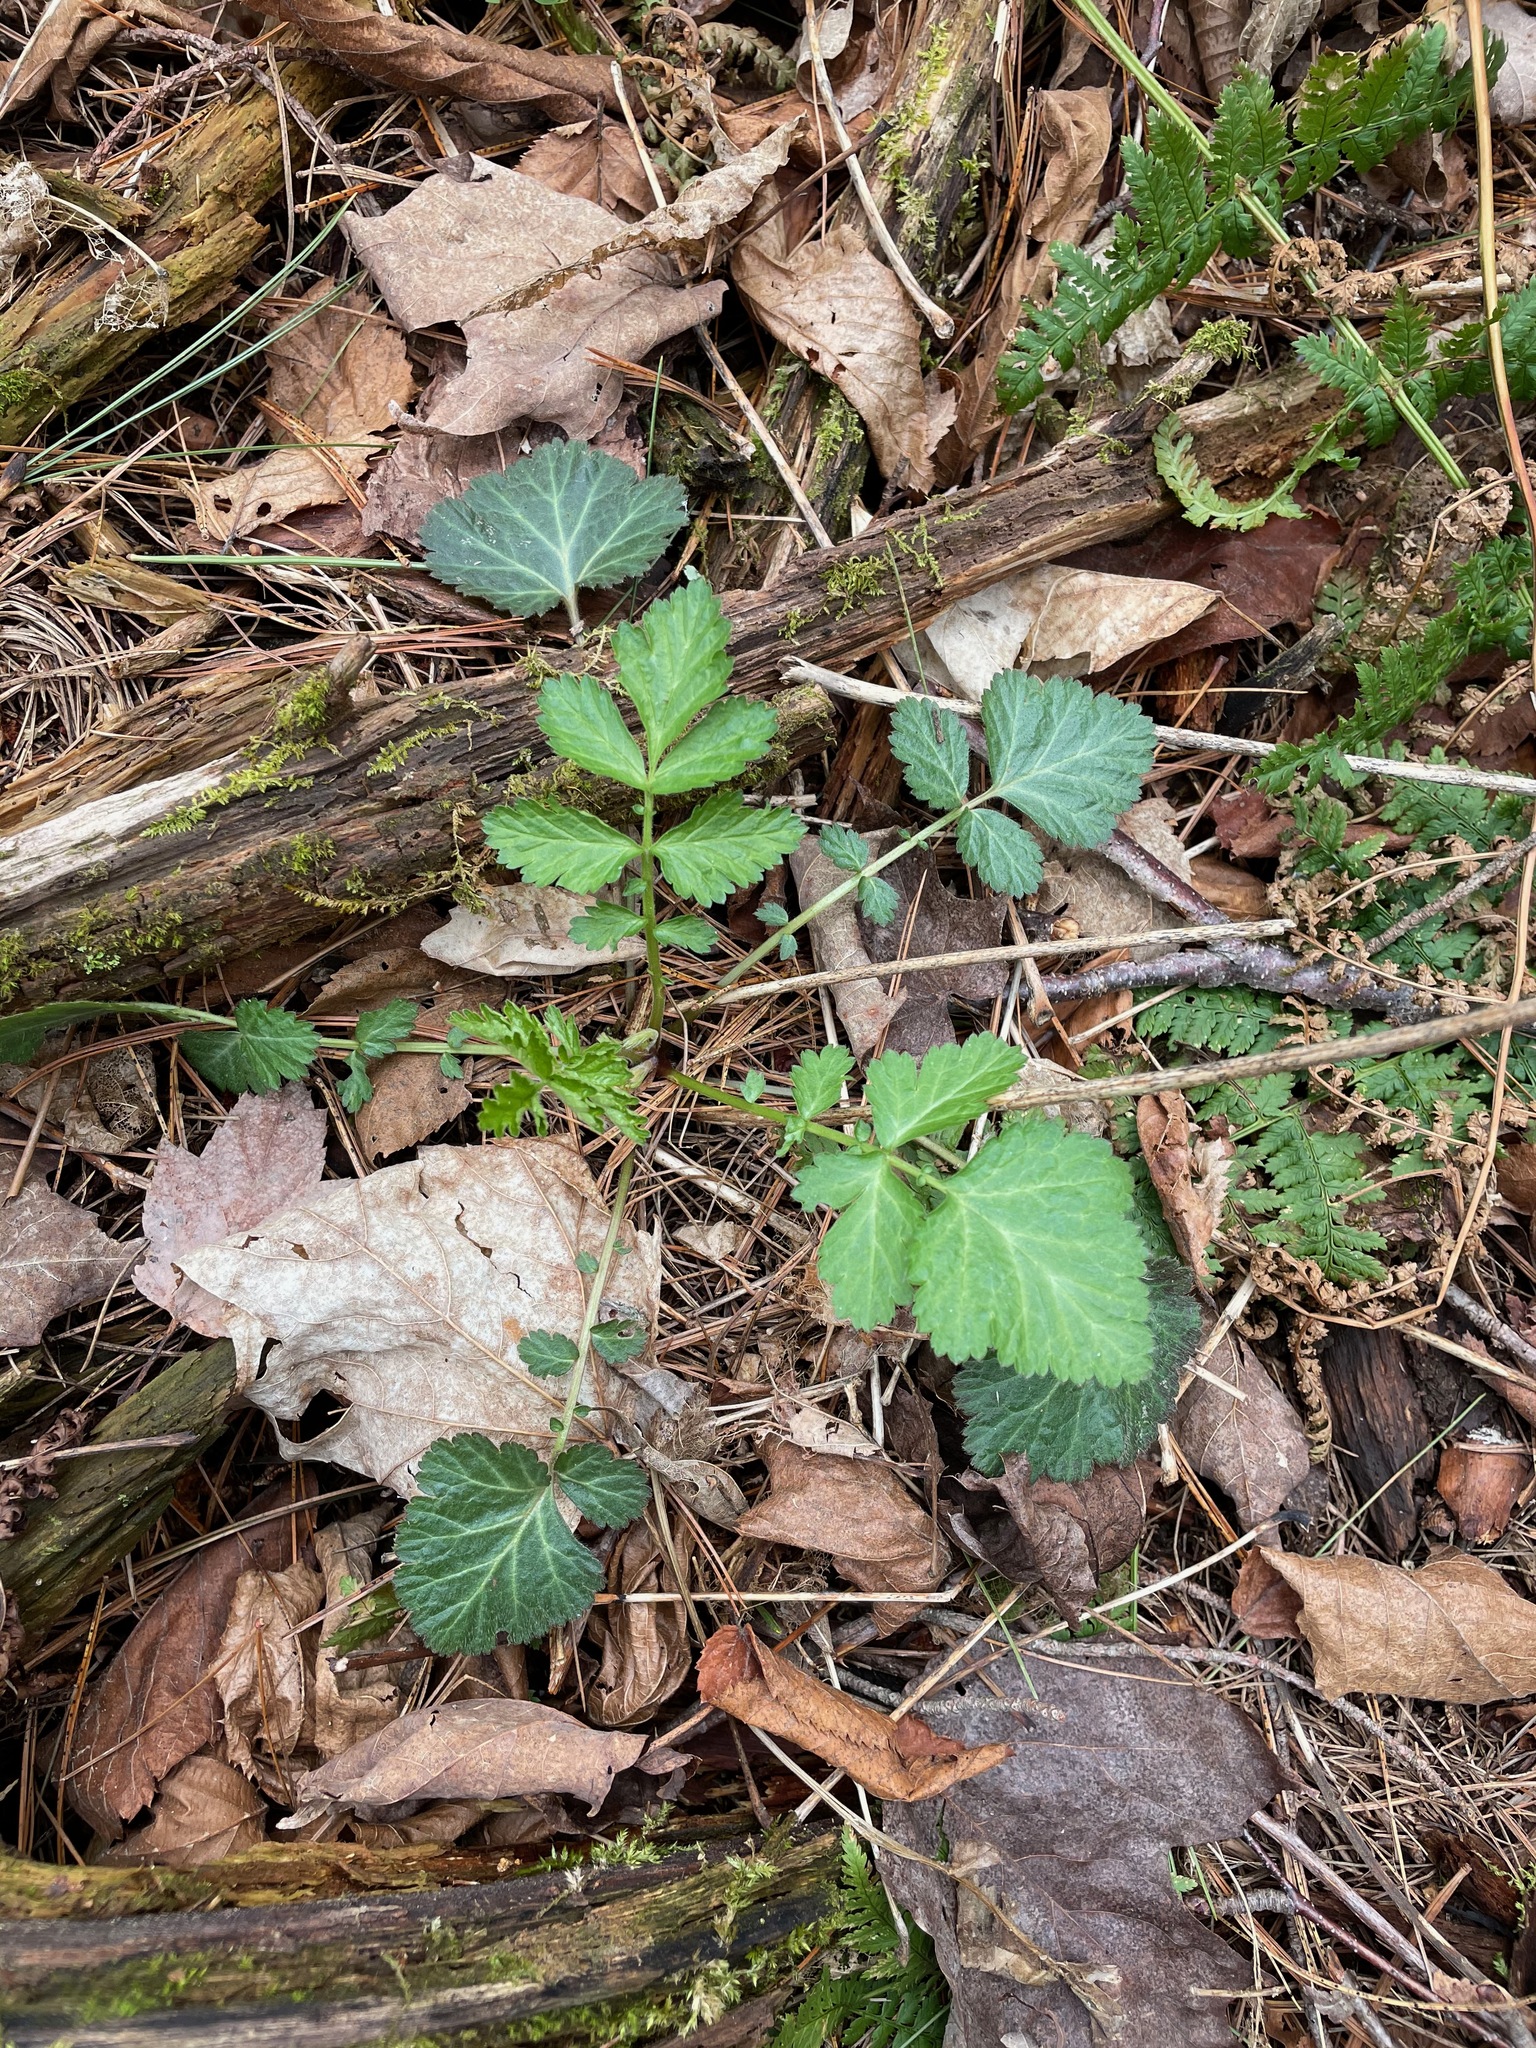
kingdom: Plantae
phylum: Tracheophyta
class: Magnoliopsida
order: Rosales
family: Rosaceae
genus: Geum
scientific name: Geum canadense
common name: White avens
